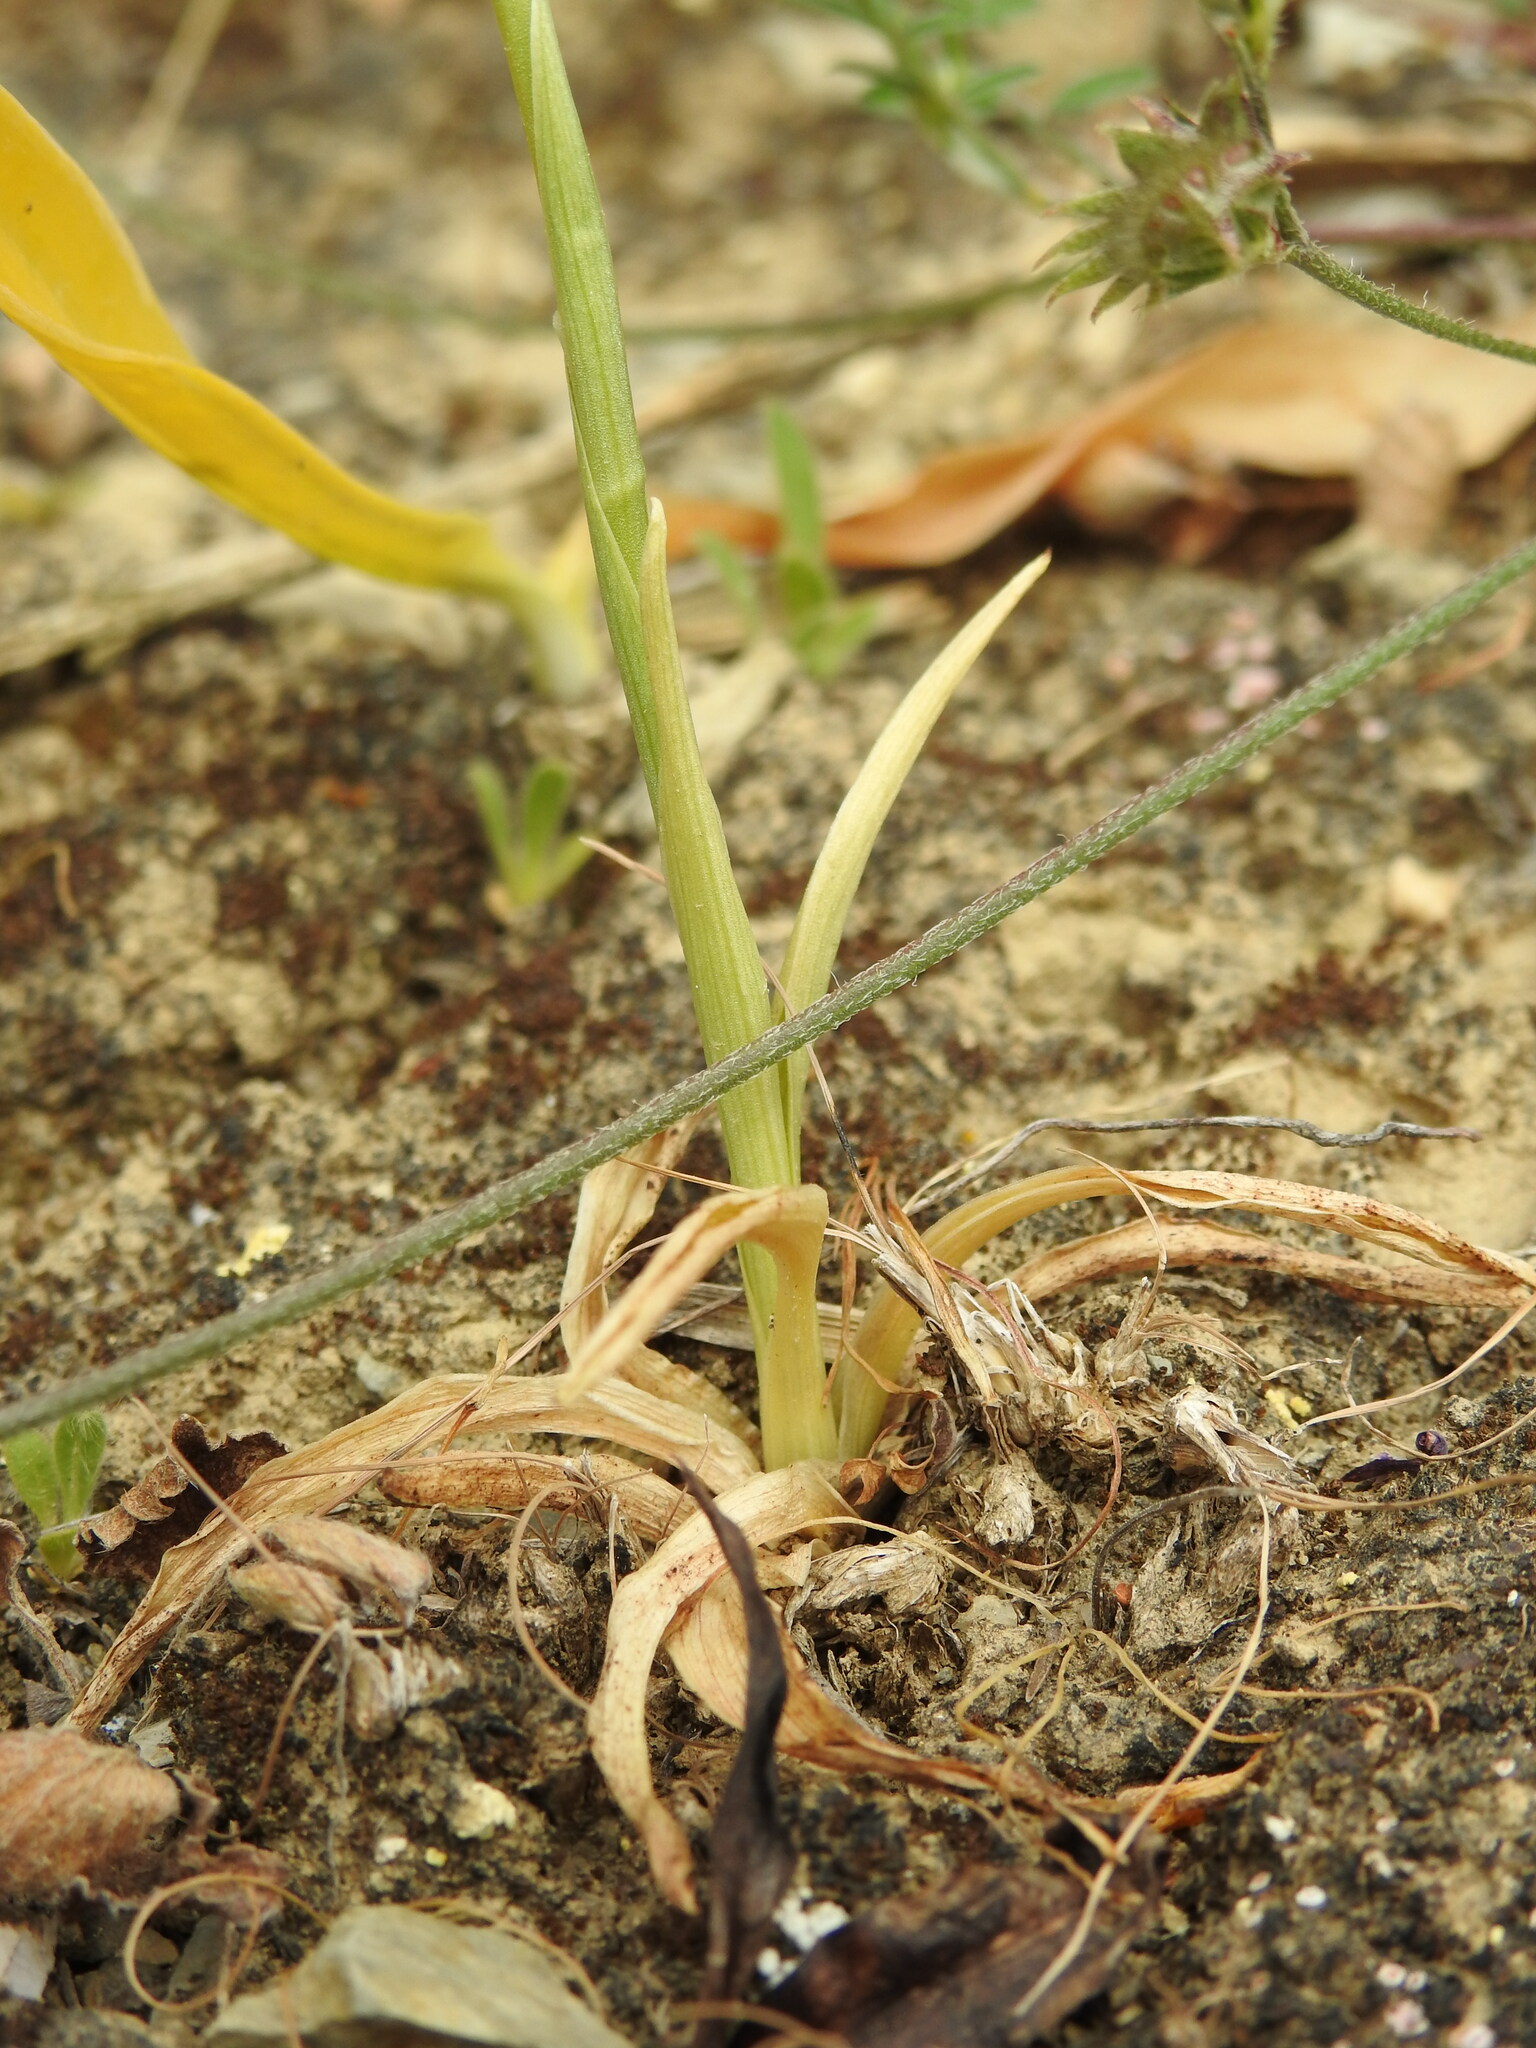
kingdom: Plantae
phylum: Tracheophyta
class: Liliopsida
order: Asparagales
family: Orchidaceae
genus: Anacamptis
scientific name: Anacamptis coriophora
